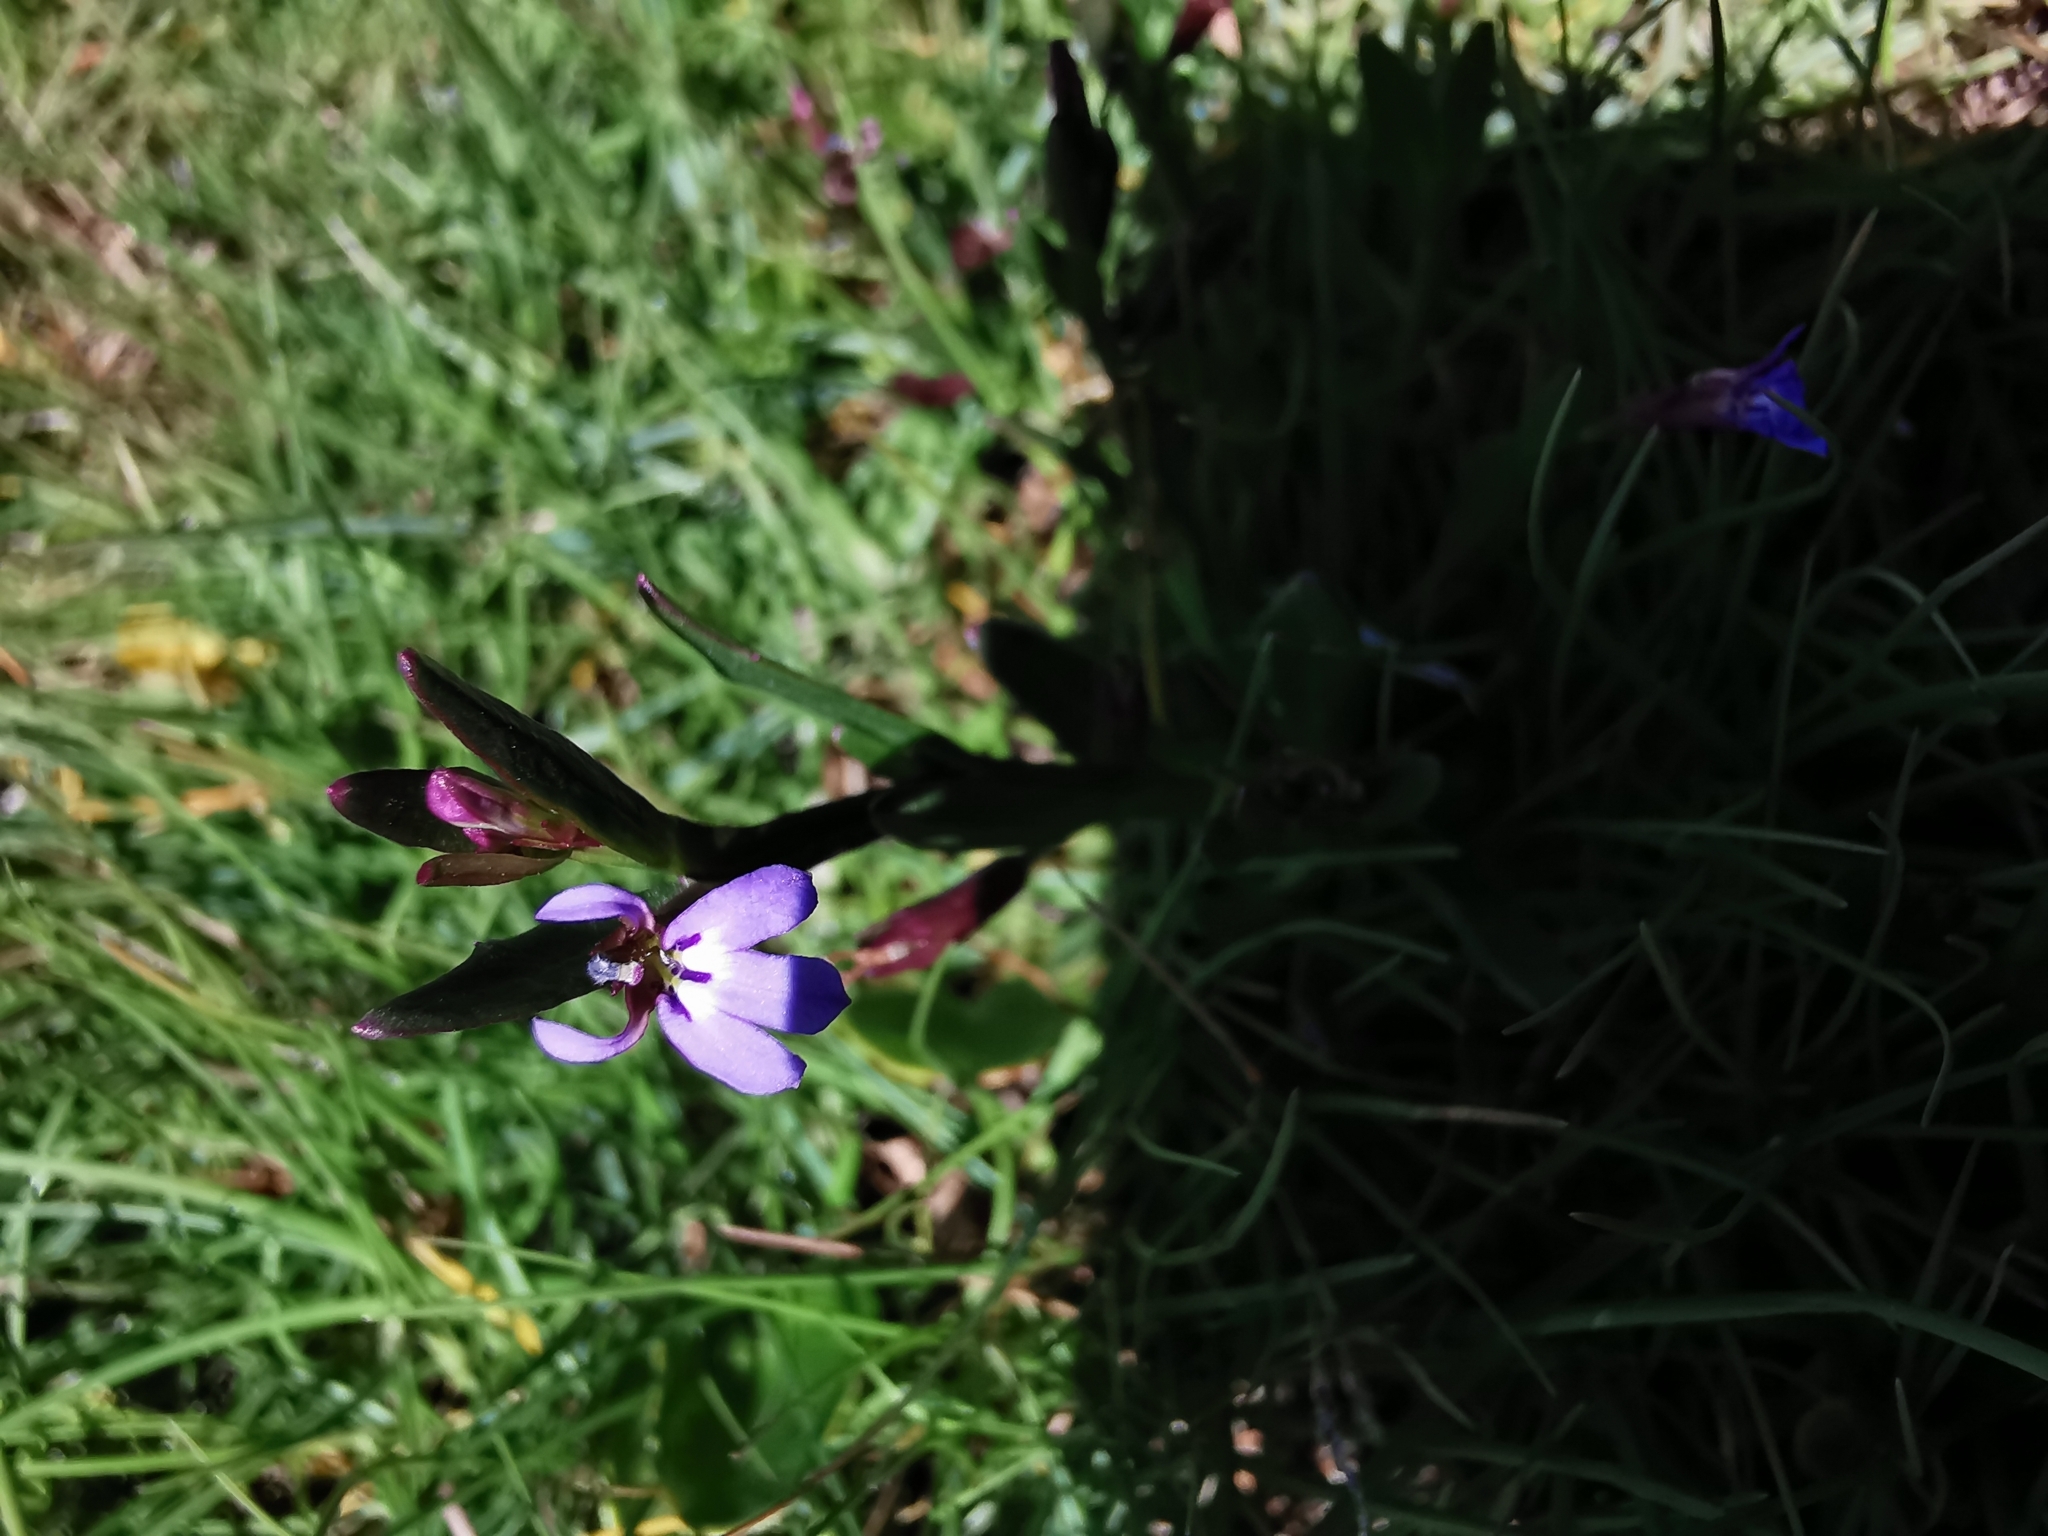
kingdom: Plantae
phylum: Tracheophyta
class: Magnoliopsida
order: Asterales
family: Campanulaceae
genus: Lobelia
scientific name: Lobelia anceps
